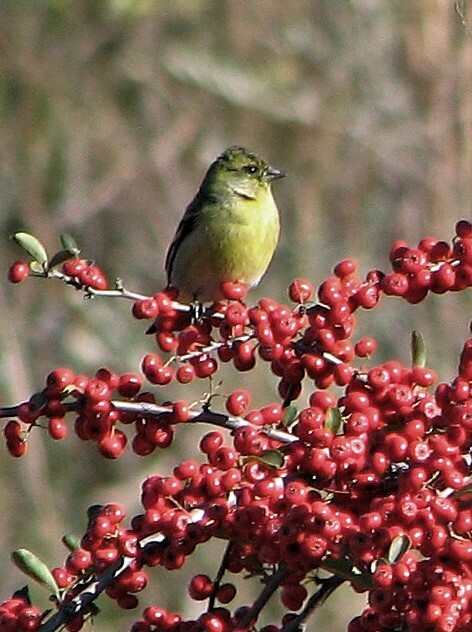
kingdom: Animalia
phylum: Chordata
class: Aves
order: Passeriformes
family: Fringillidae
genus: Spinus
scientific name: Spinus magellanicus
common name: Hooded siskin
